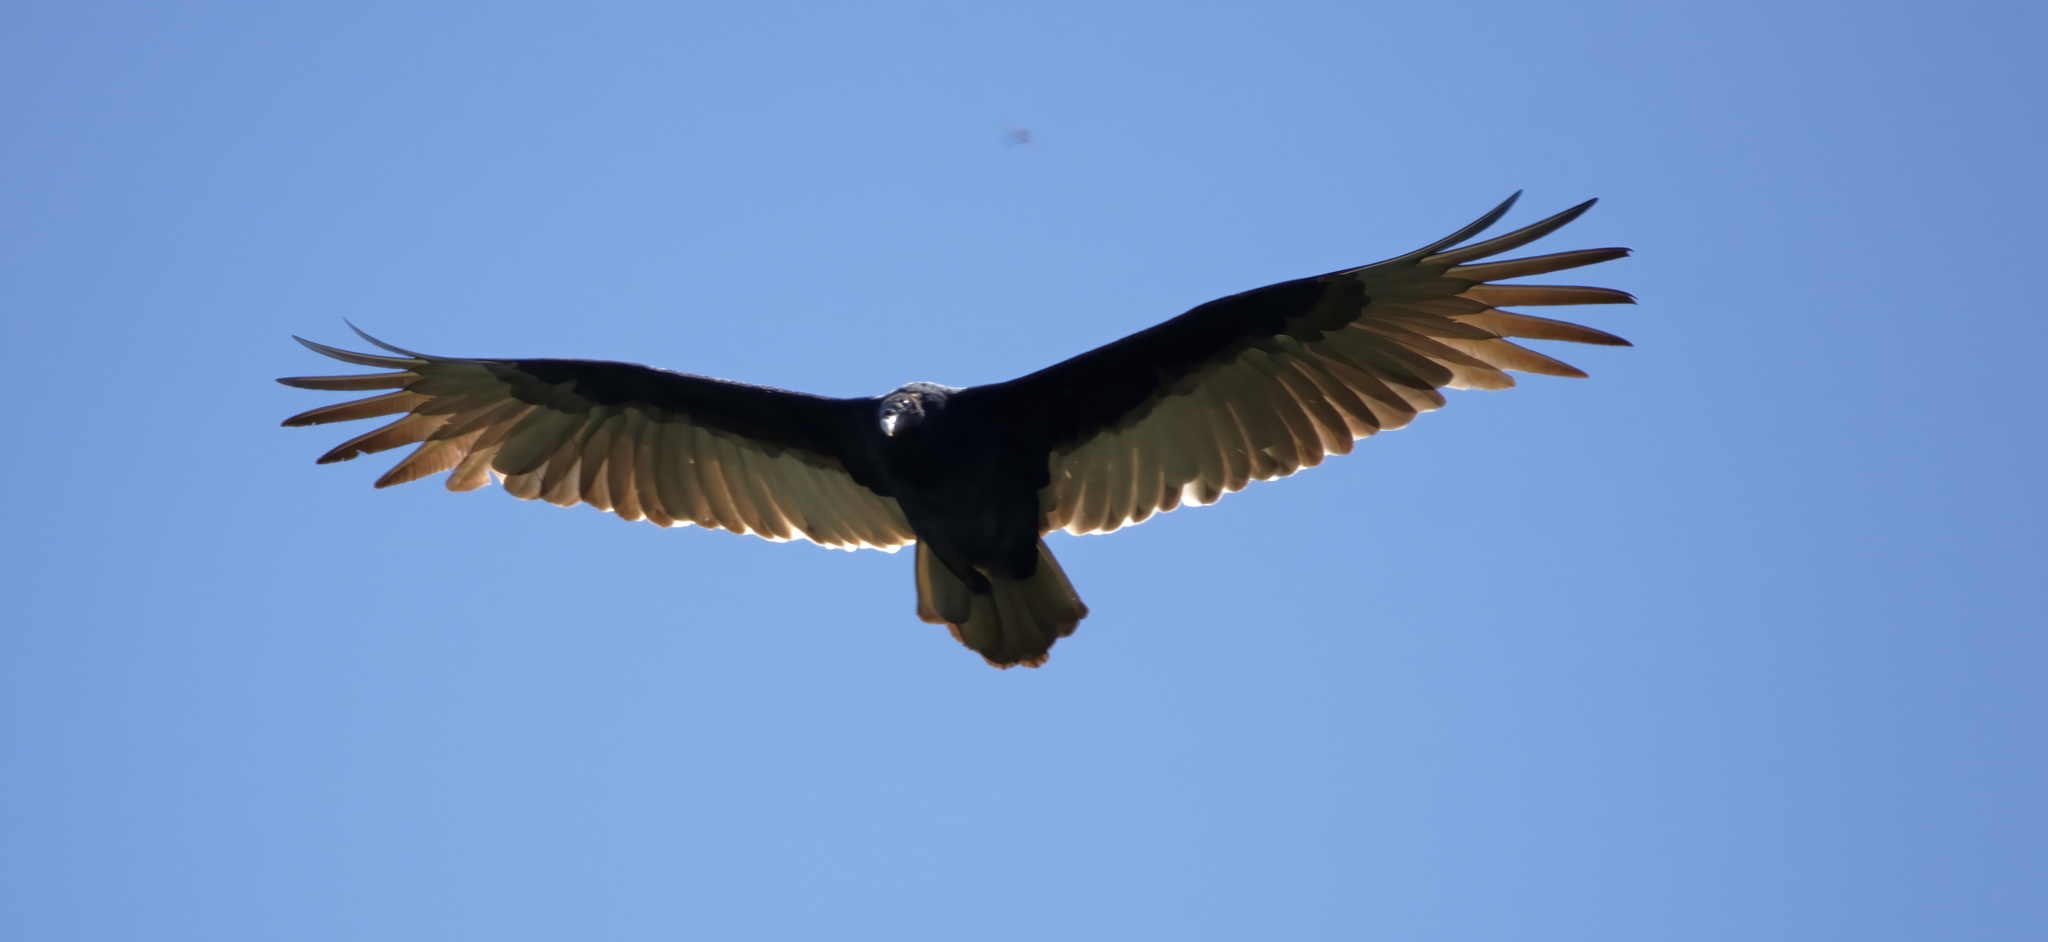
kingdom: Animalia
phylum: Chordata
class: Aves
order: Accipitriformes
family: Cathartidae
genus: Cathartes
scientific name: Cathartes aura
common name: Turkey vulture
